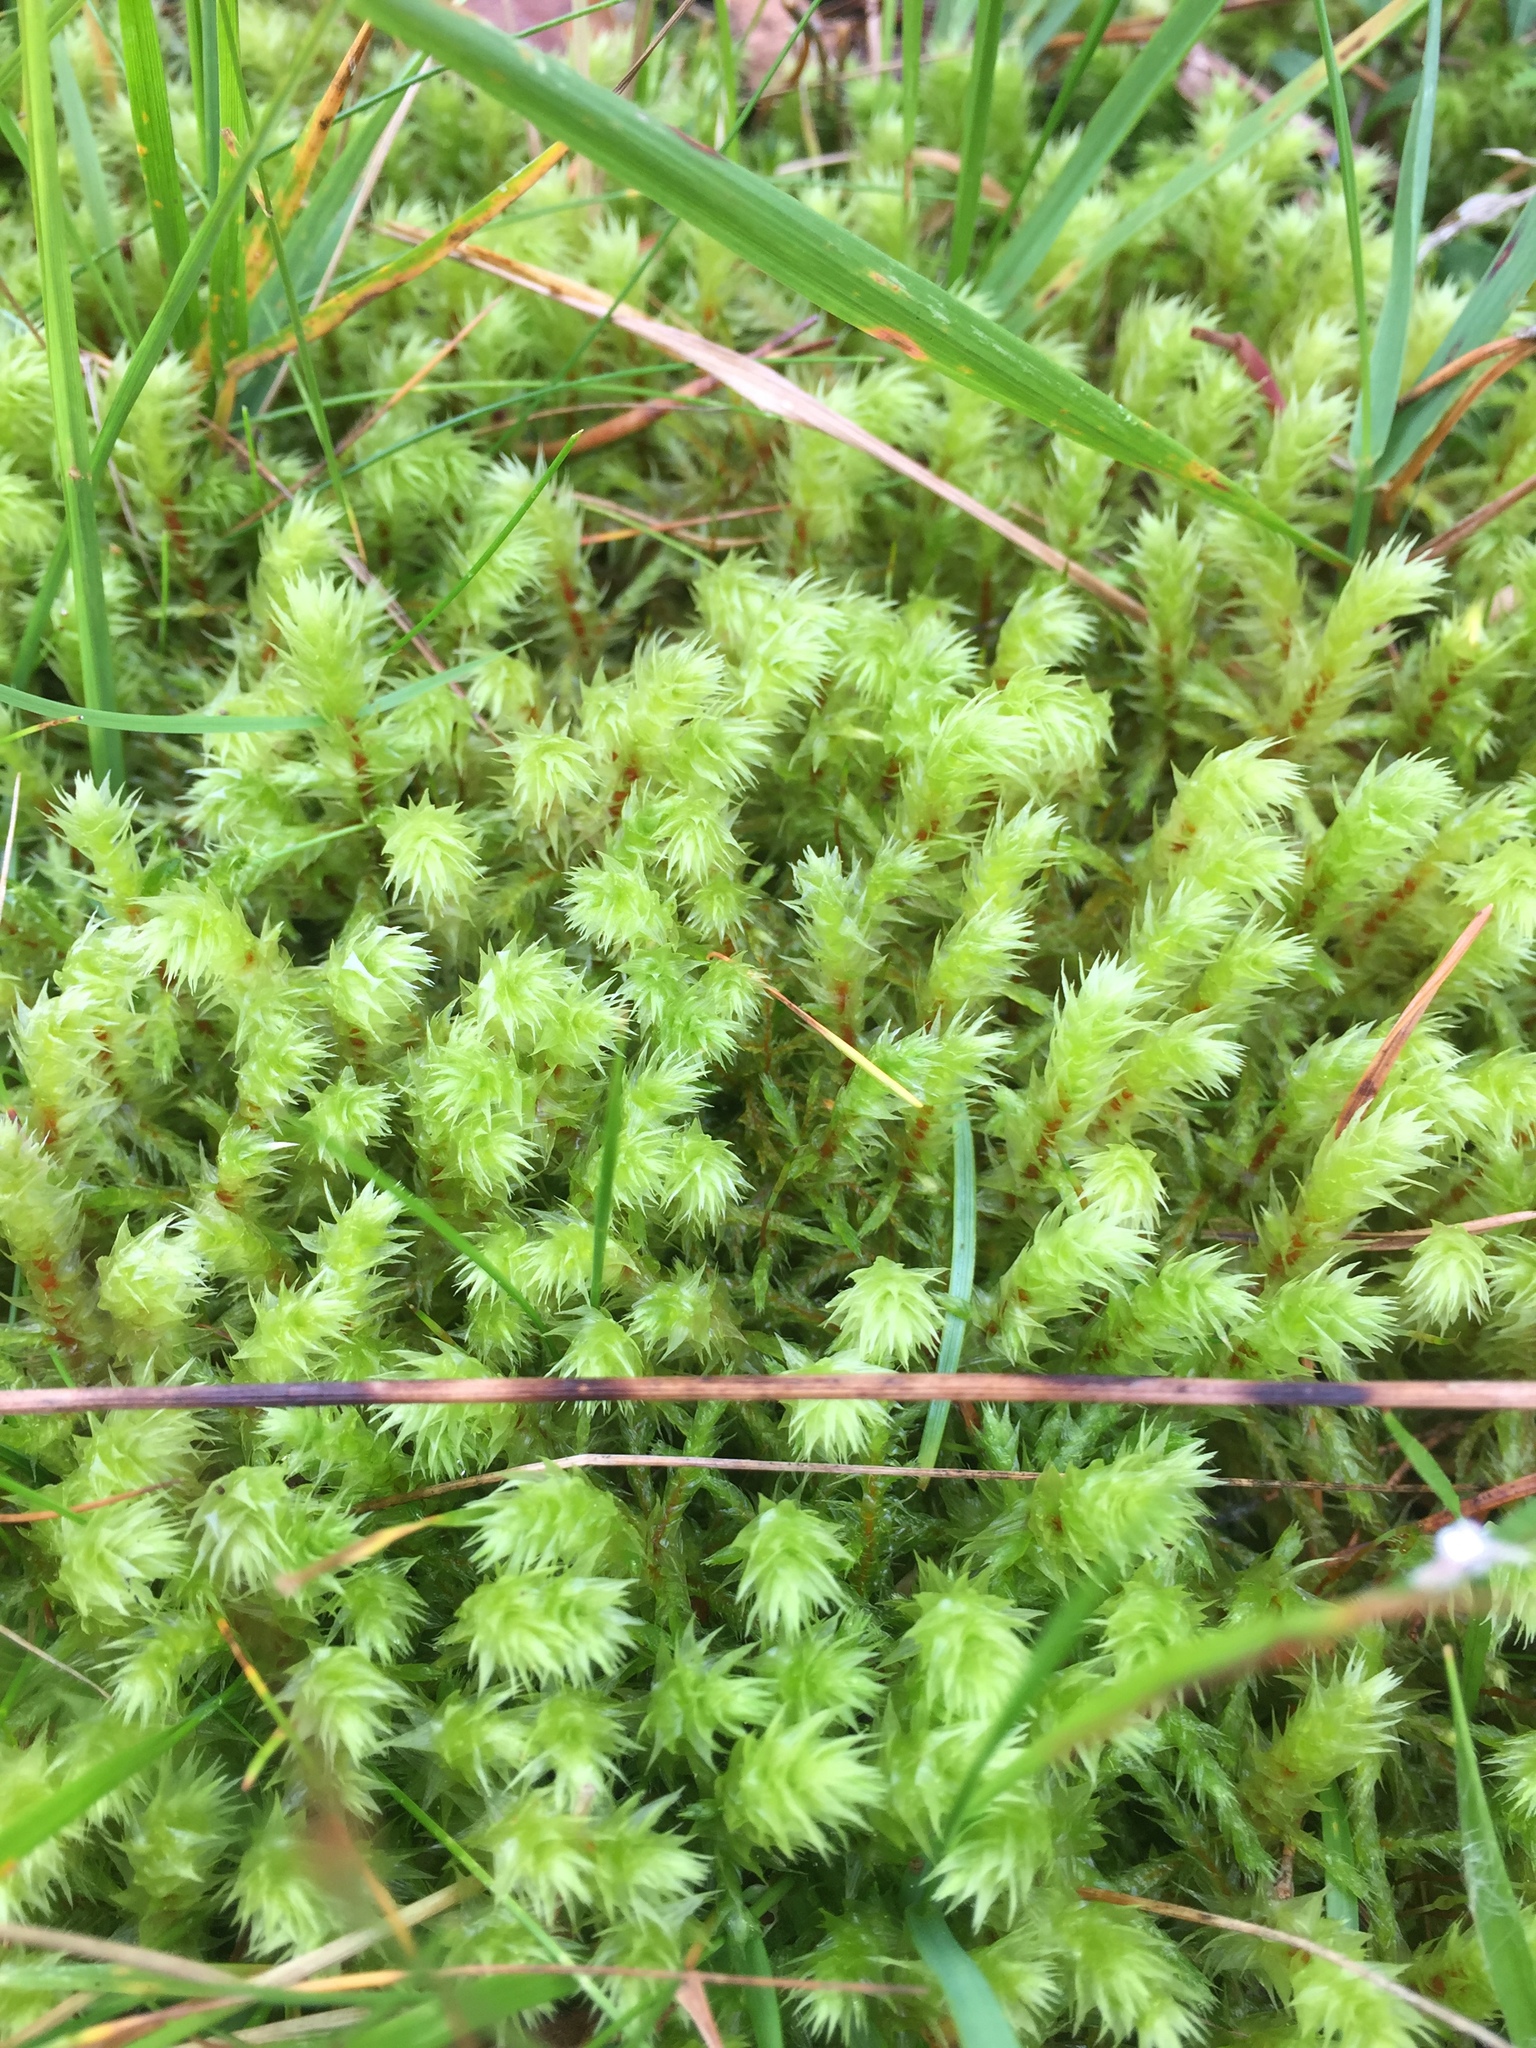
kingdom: Plantae
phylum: Bryophyta
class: Bryopsida
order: Hypnales
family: Hylocomiaceae
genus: Hylocomiadelphus
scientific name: Hylocomiadelphus triquetrus
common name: Rough goose neck moss
